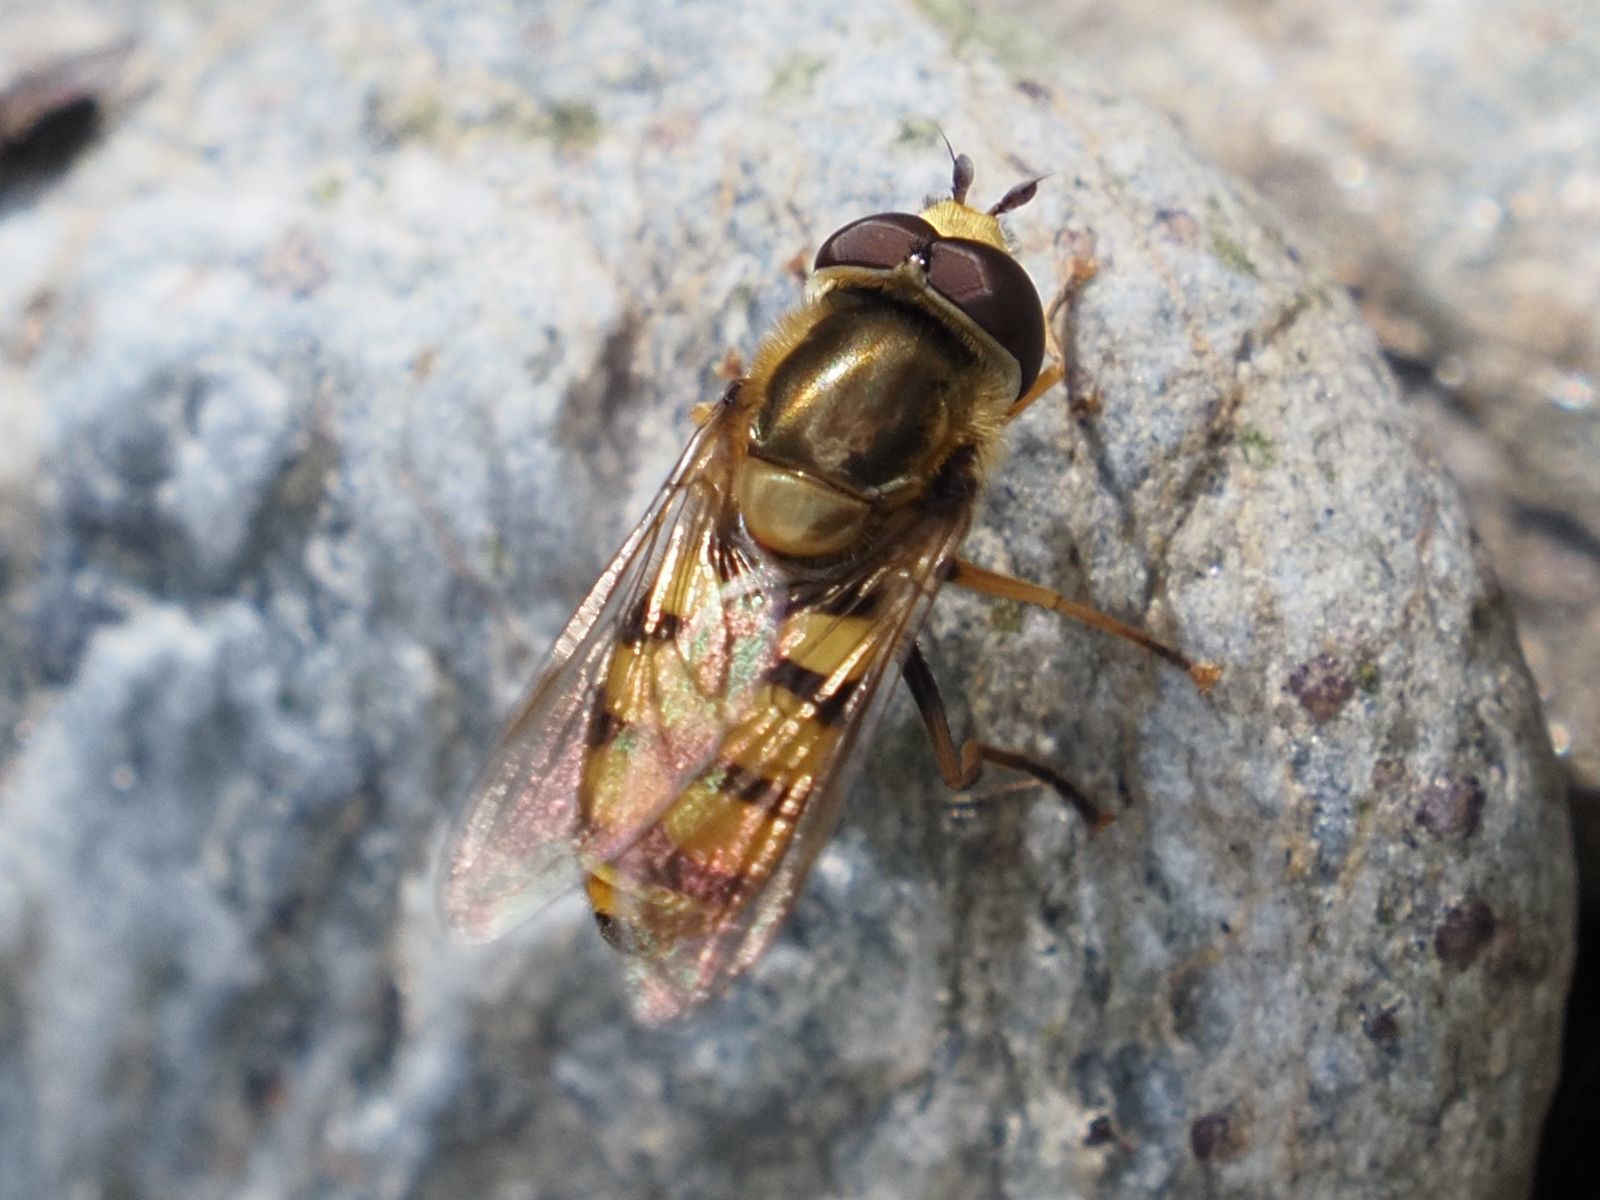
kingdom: Animalia
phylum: Arthropoda
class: Insecta
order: Diptera
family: Syrphidae
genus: Eupeodes
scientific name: Eupeodes corollae
